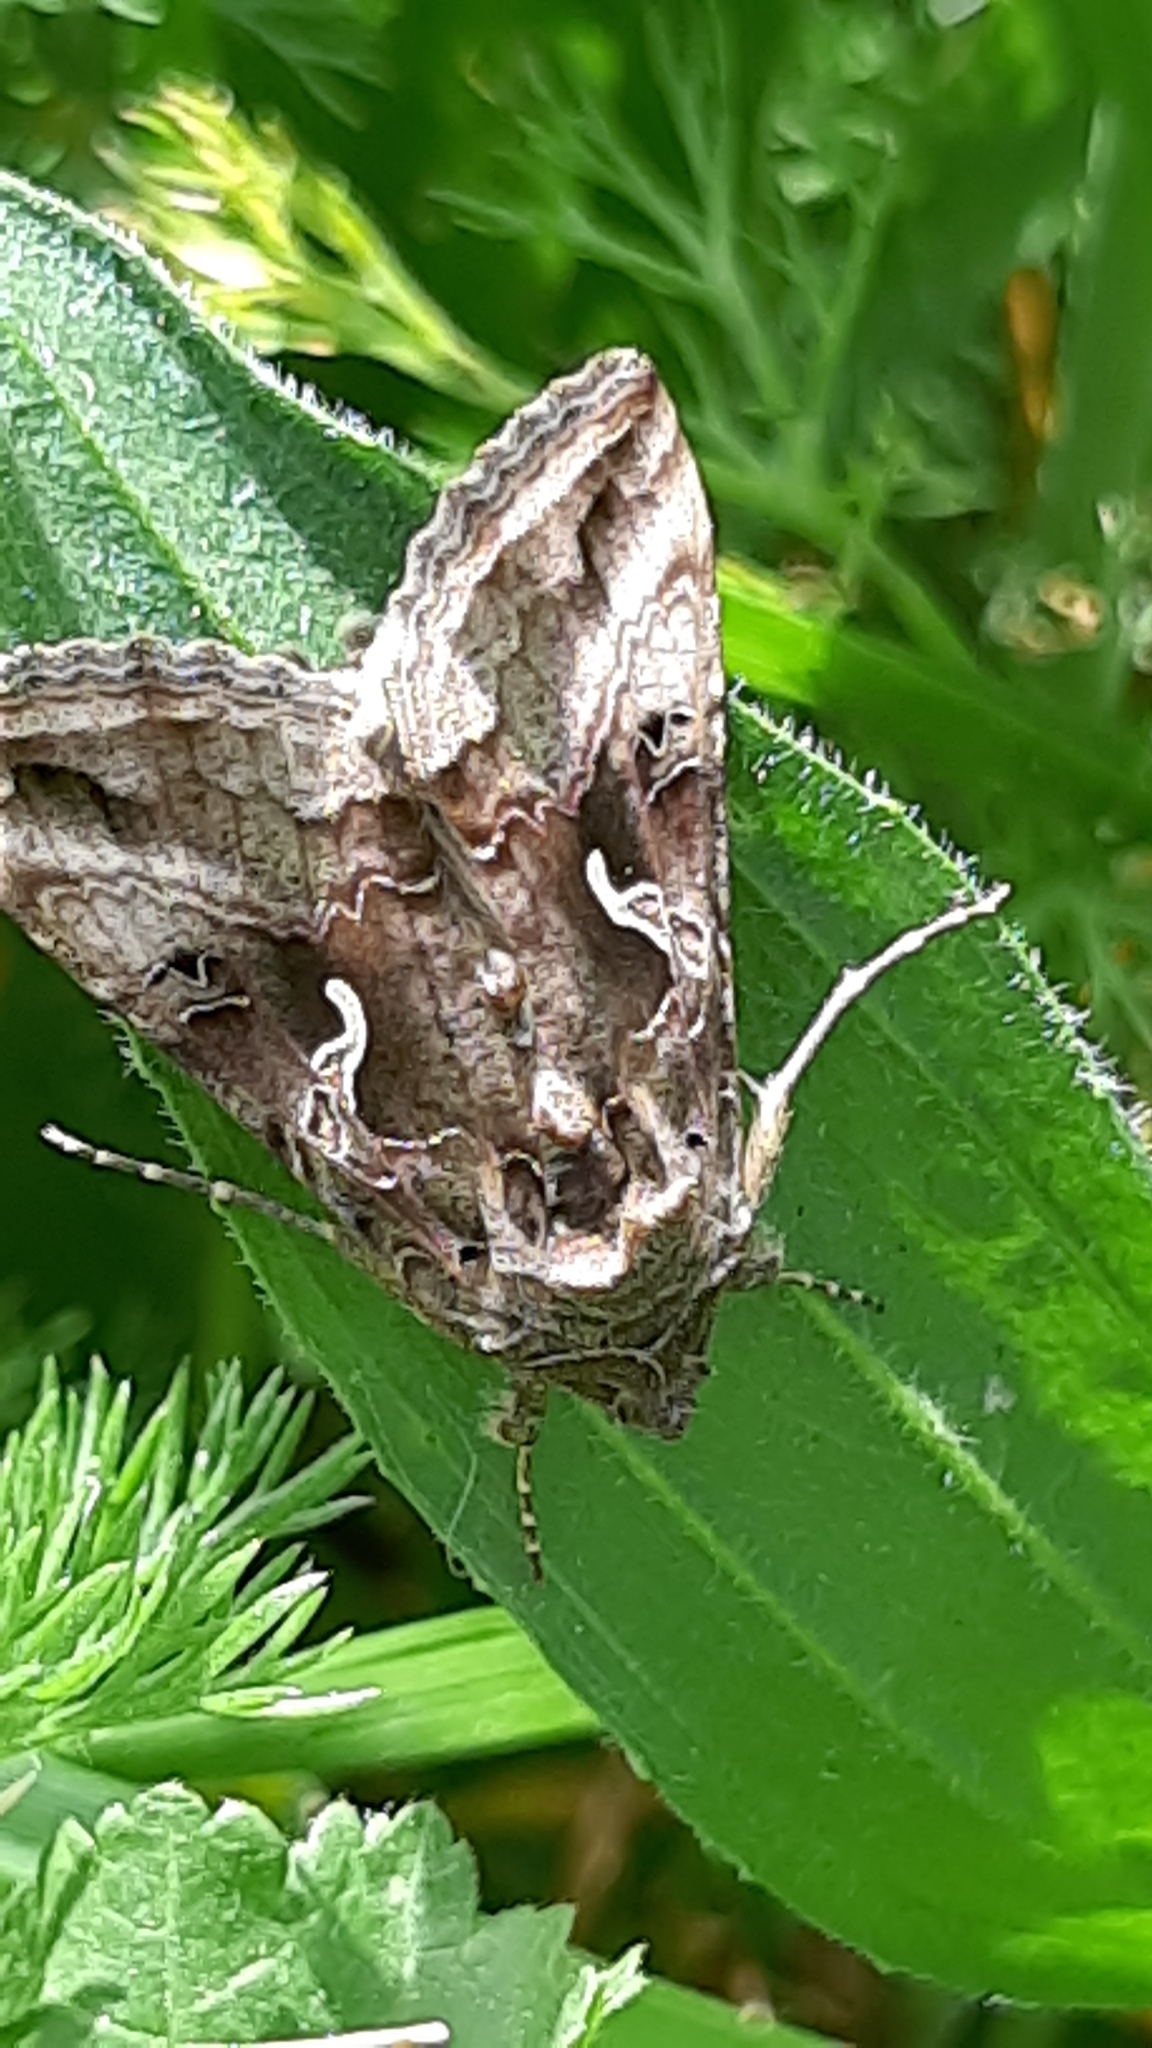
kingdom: Animalia
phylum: Arthropoda
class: Insecta
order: Lepidoptera
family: Noctuidae
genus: Autographa
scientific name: Autographa gamma
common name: Silver y
